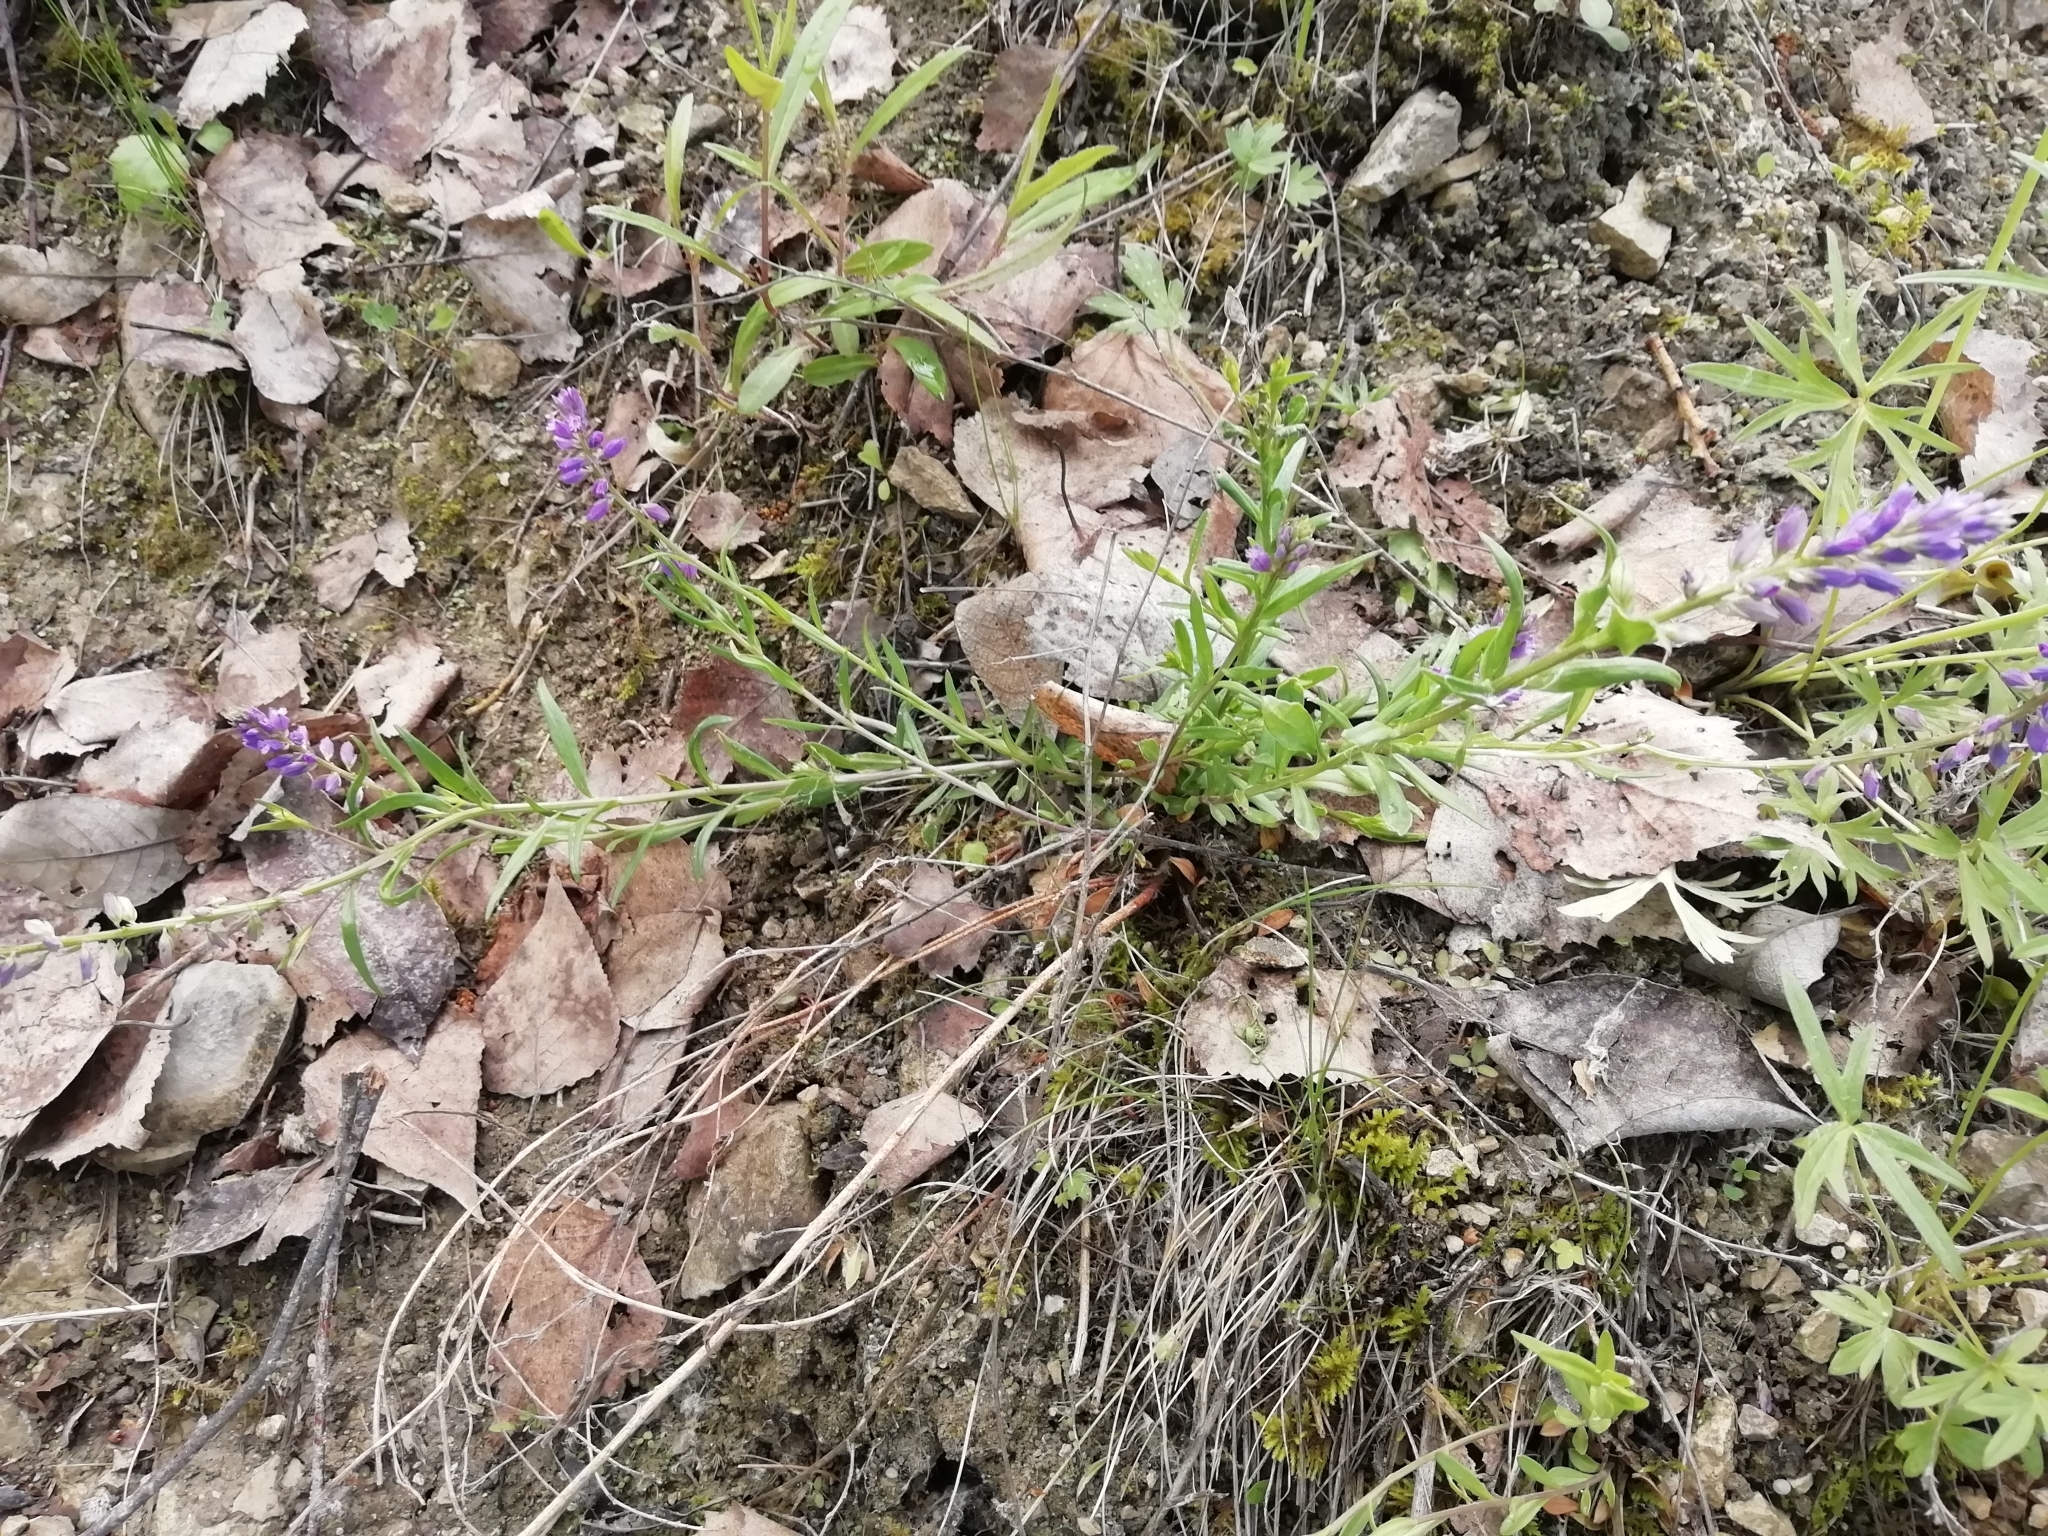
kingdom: Plantae
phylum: Tracheophyta
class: Magnoliopsida
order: Fabales
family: Polygalaceae
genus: Polygala
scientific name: Polygala comosa
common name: Tufted milkwort
